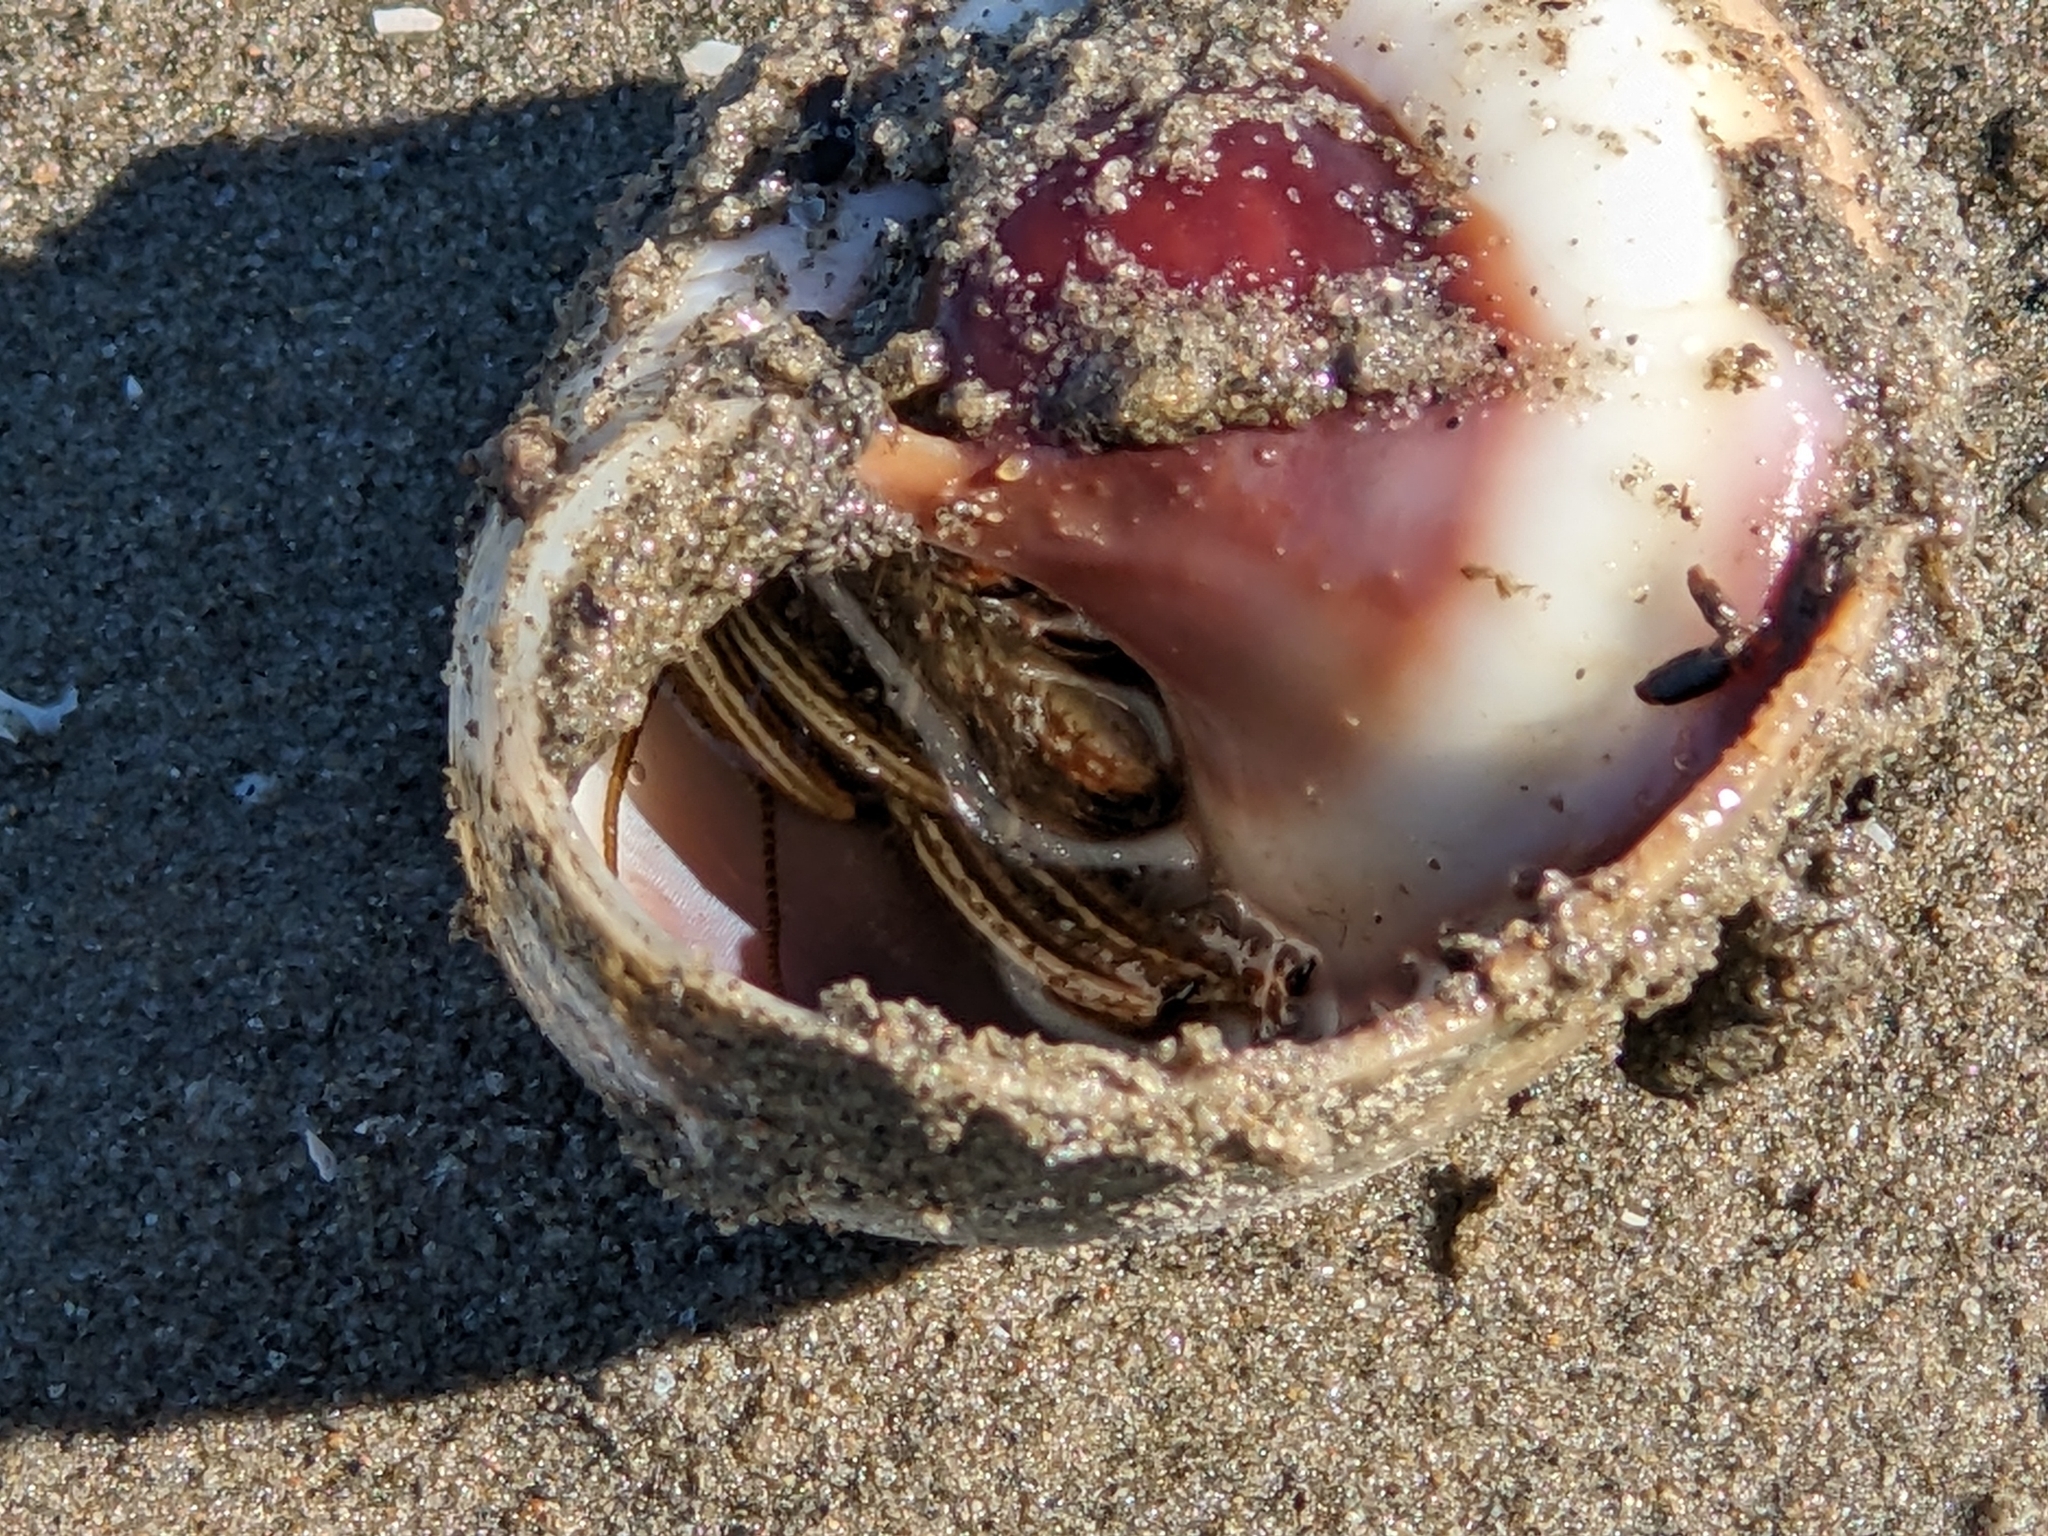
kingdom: Animalia
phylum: Arthropoda
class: Malacostraca
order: Decapoda
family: Diogenidae
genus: Clibanarius
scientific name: Clibanarius vittatus
